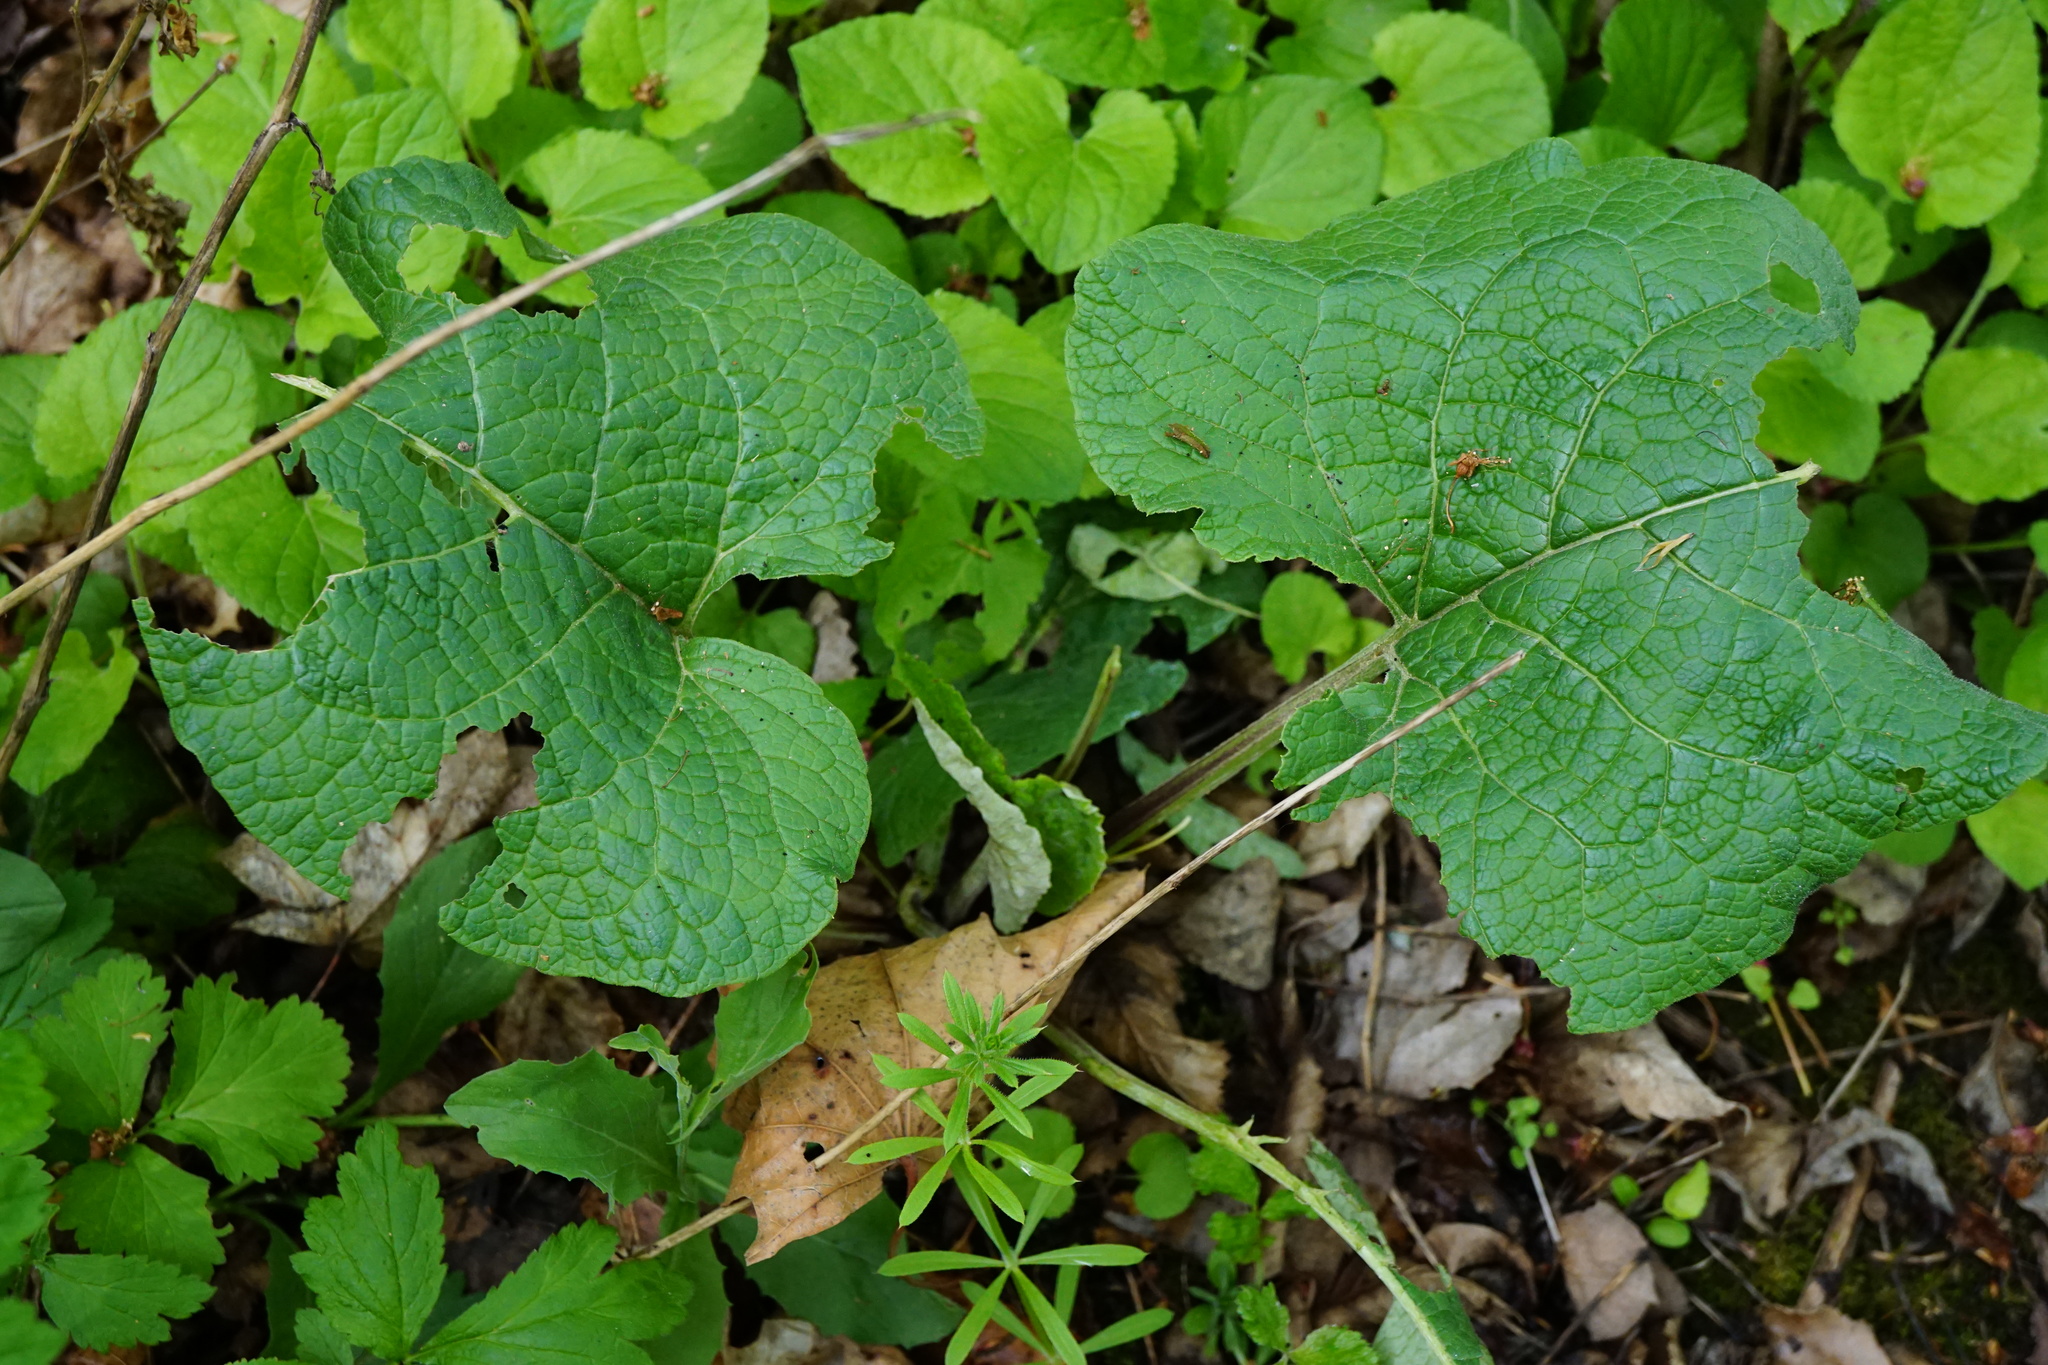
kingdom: Plantae
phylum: Tracheophyta
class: Magnoliopsida
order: Asterales
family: Asteraceae
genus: Arctium
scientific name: Arctium
